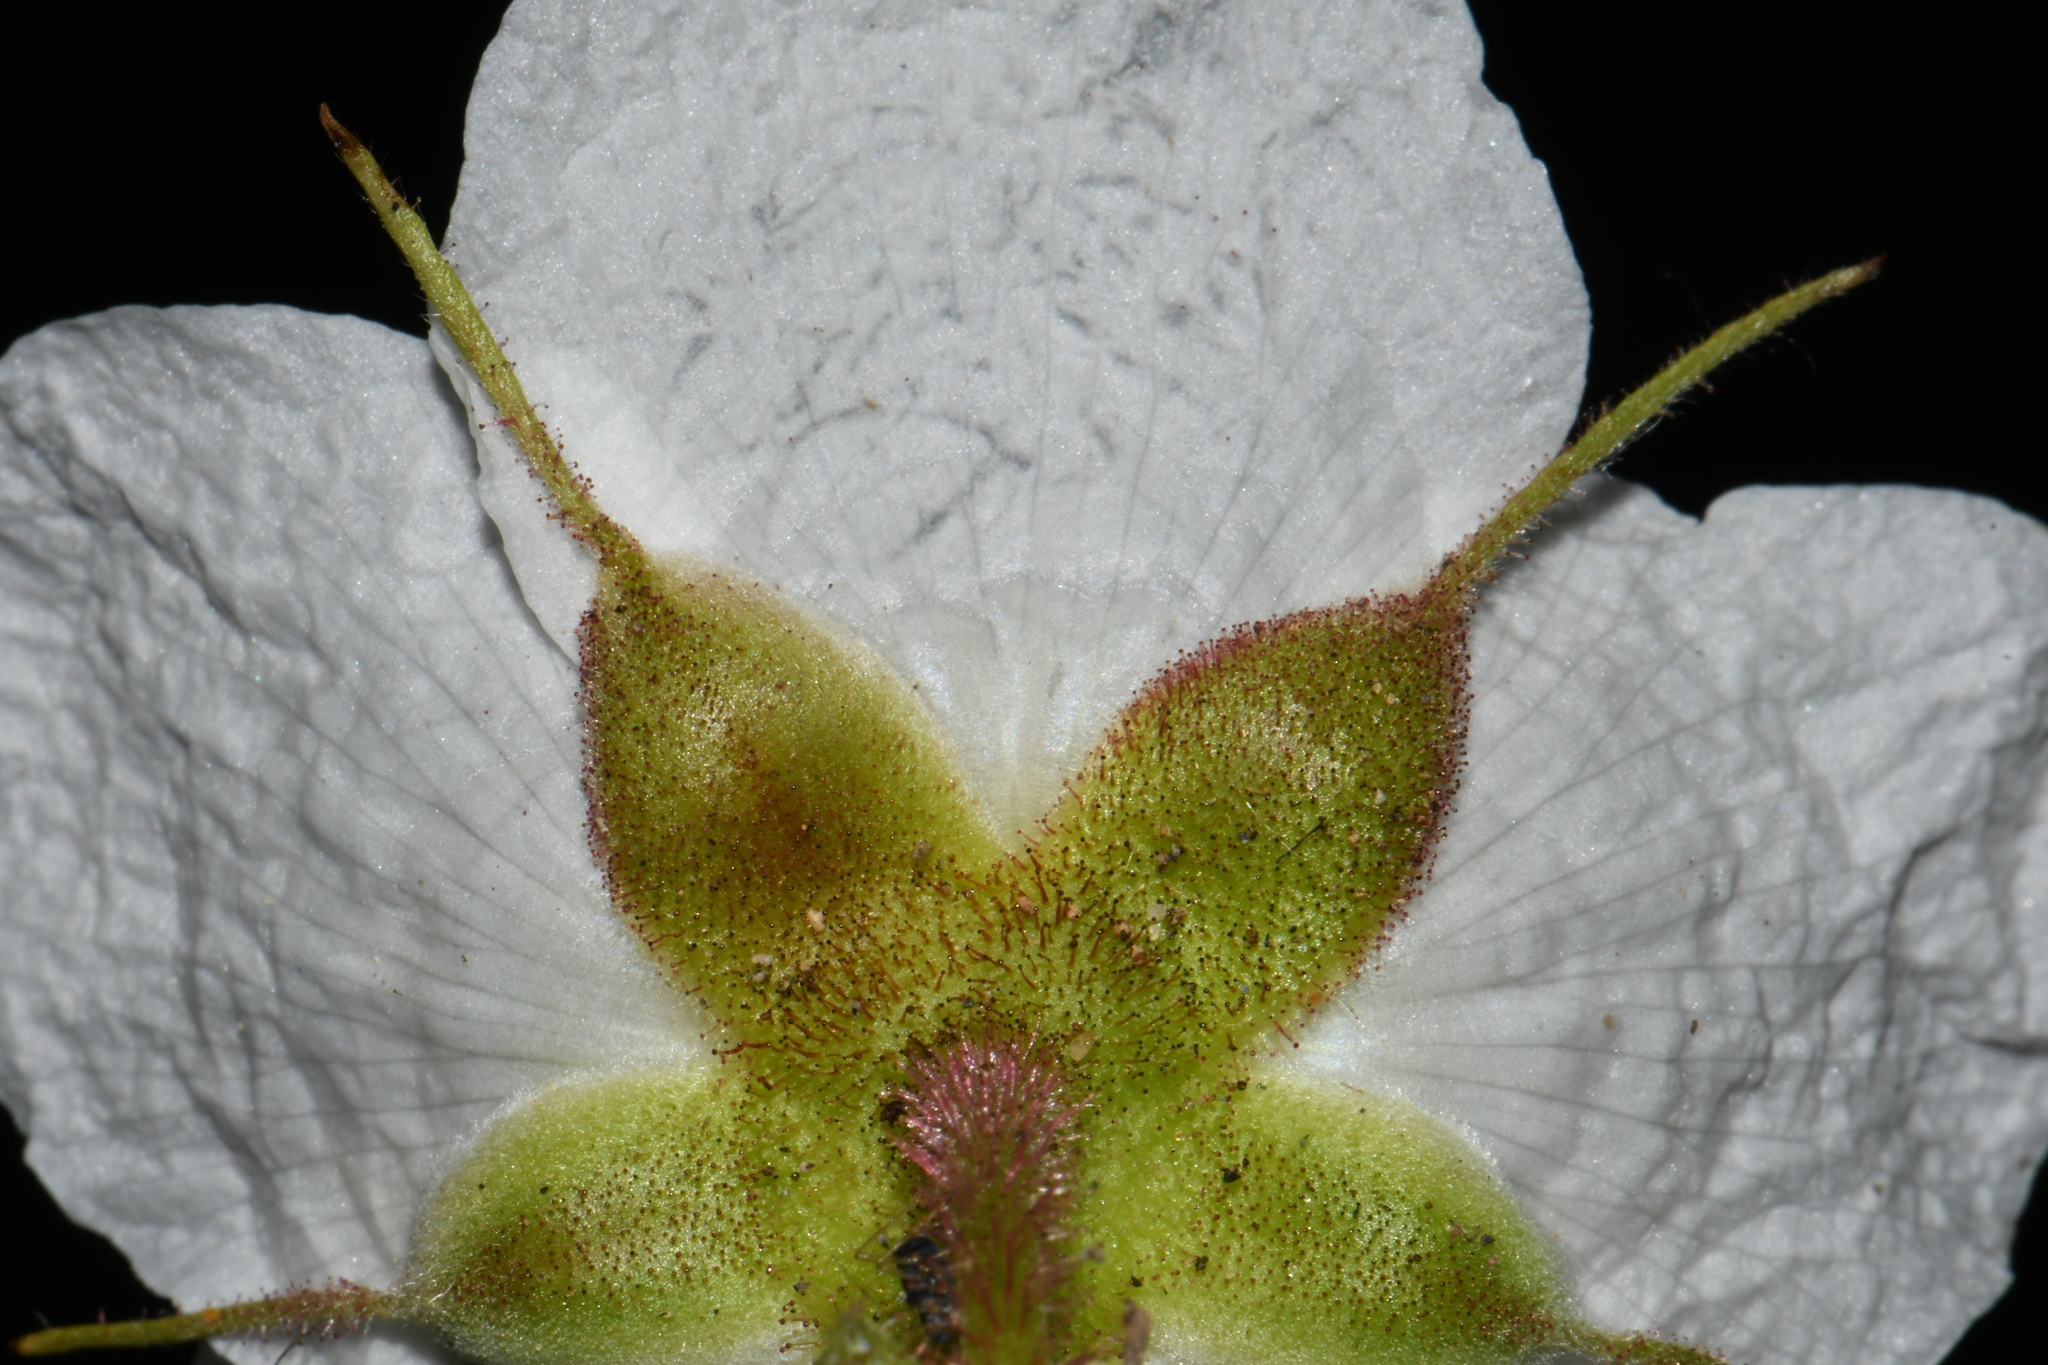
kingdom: Plantae
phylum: Tracheophyta
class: Magnoliopsida
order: Rosales
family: Rosaceae
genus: Rubus
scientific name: Rubus parviflorus
